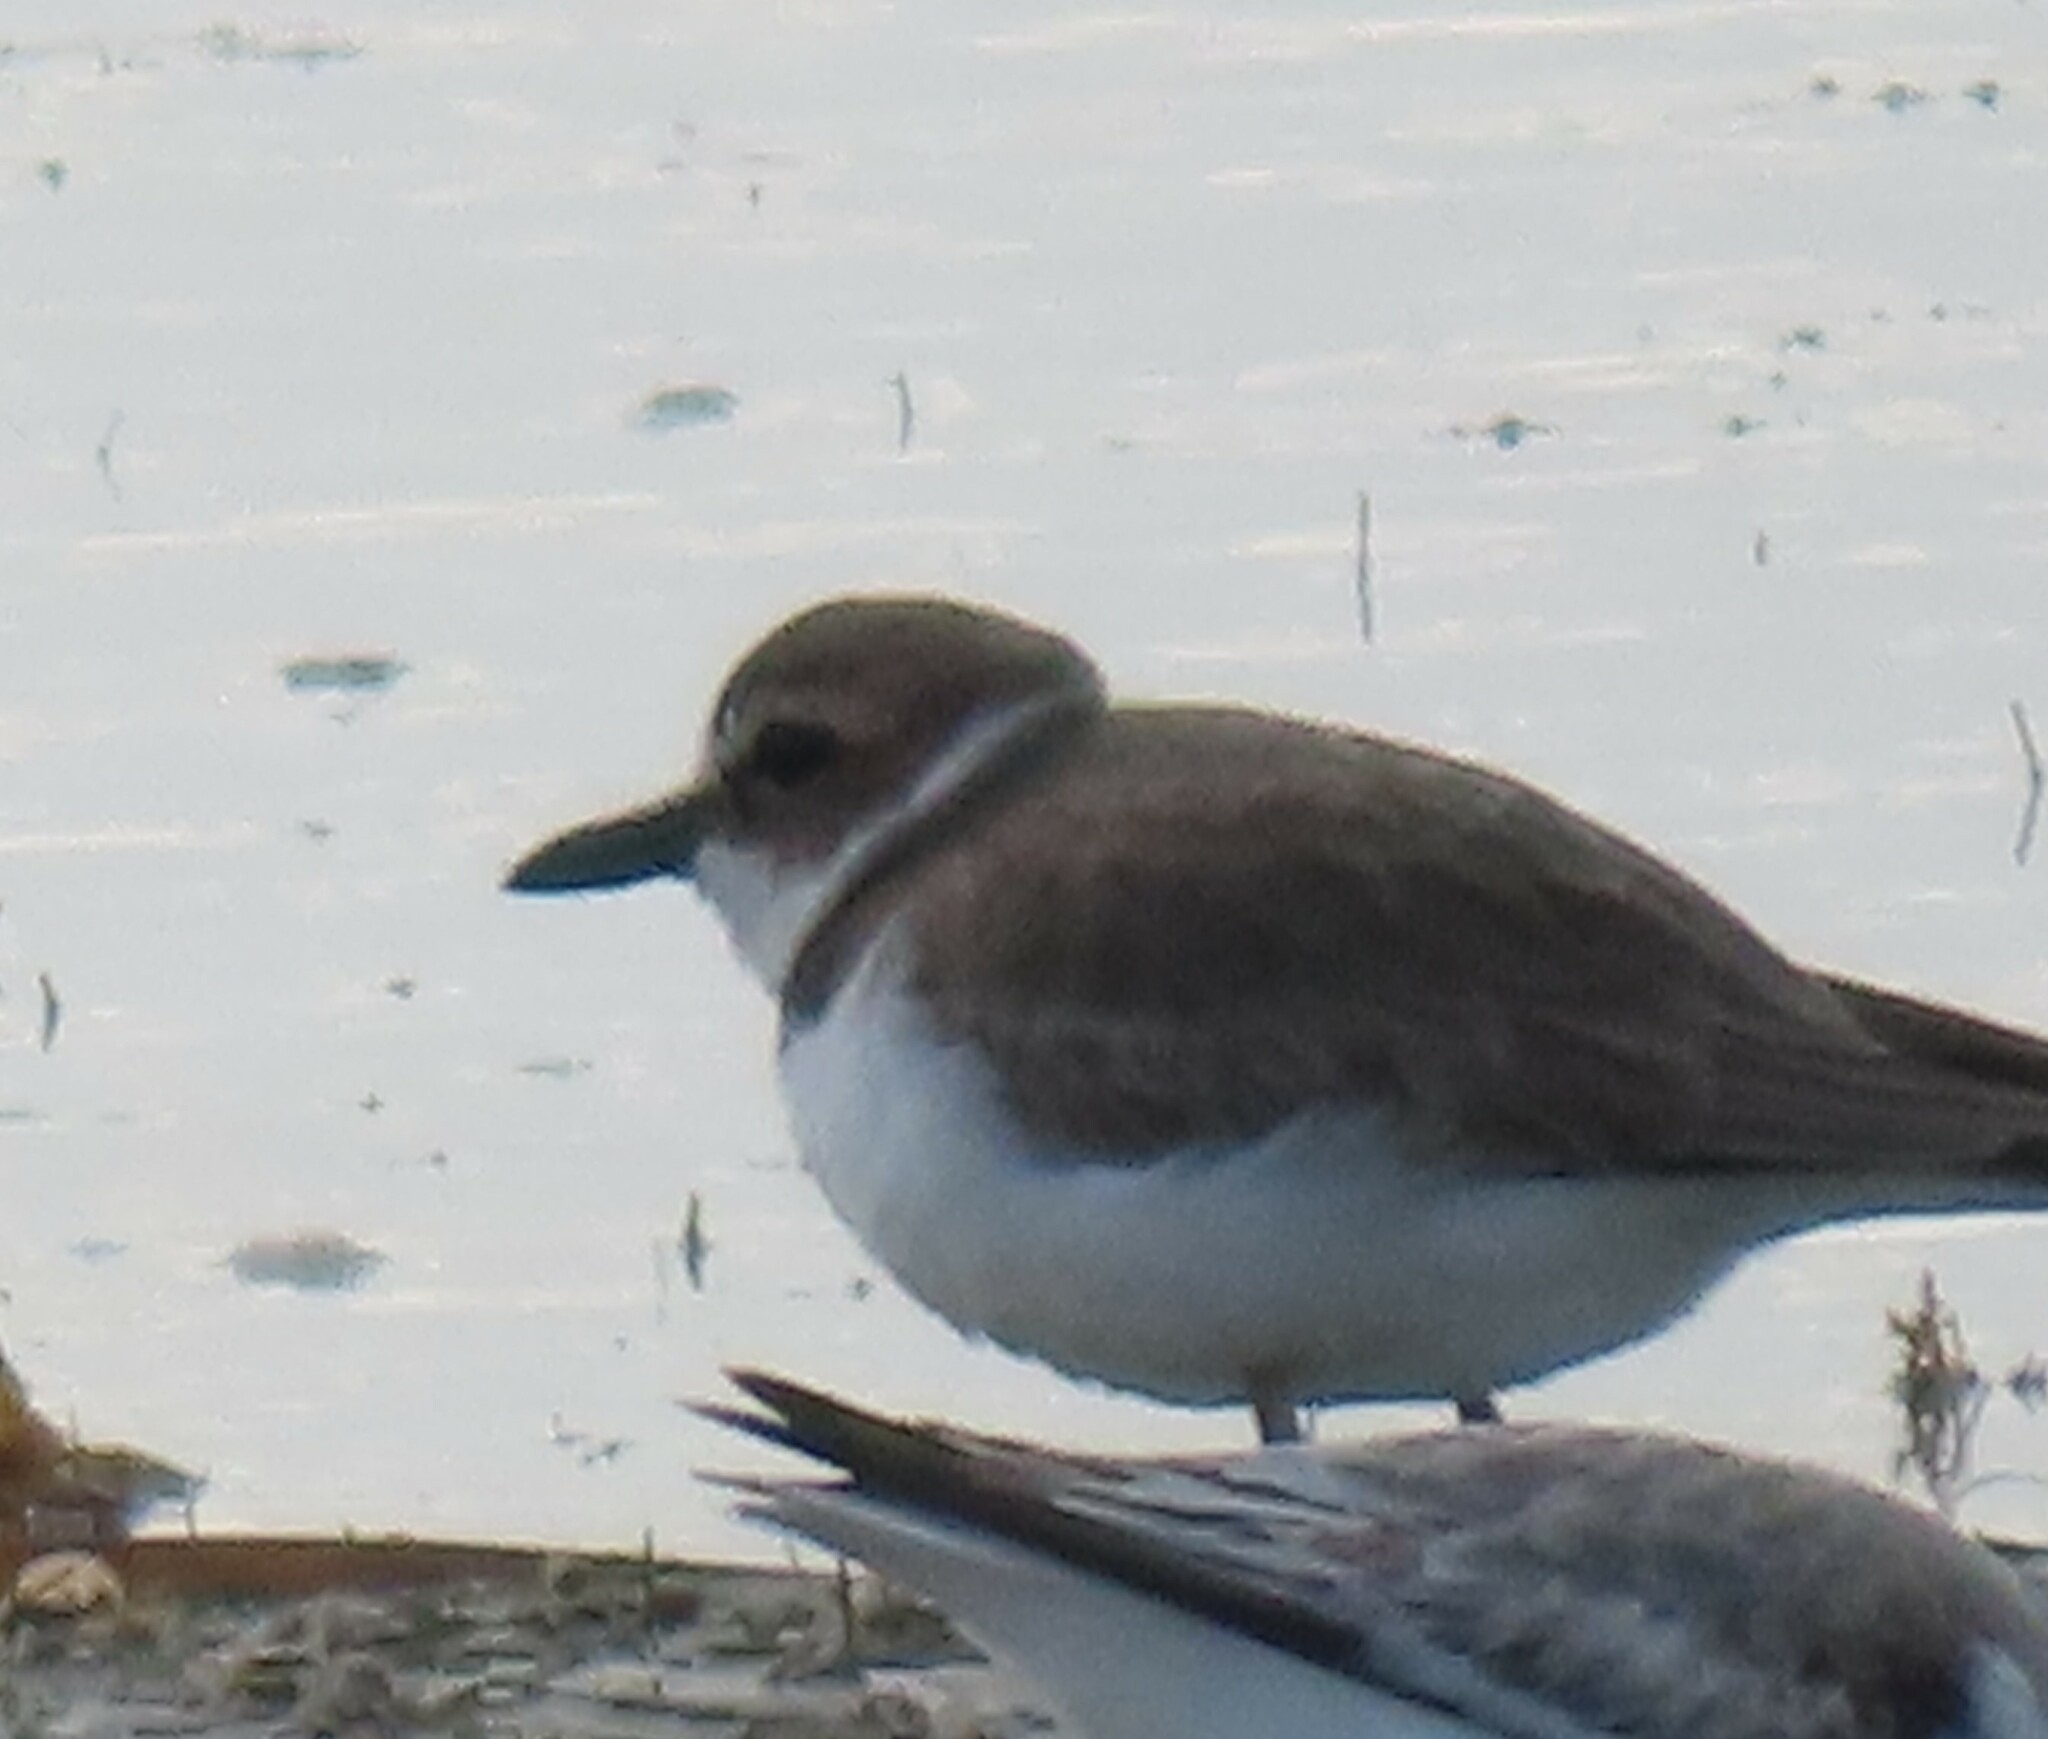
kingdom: Animalia
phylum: Chordata
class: Aves
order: Charadriiformes
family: Charadriidae
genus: Anarhynchus
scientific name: Anarhynchus
